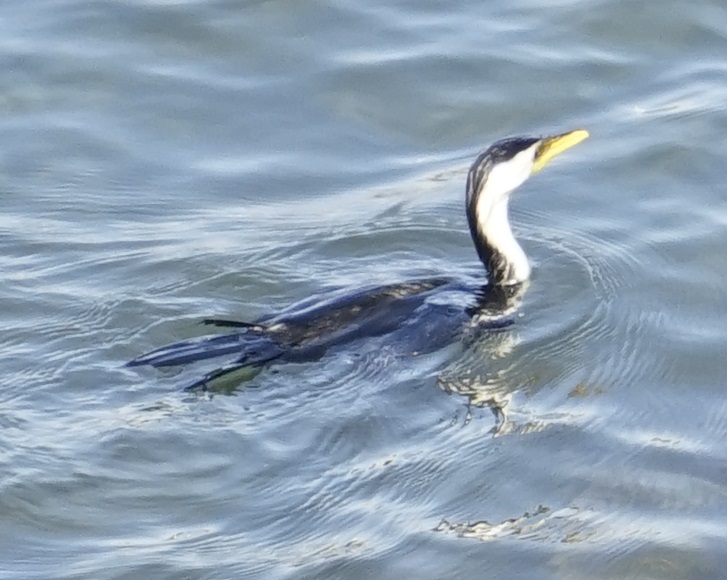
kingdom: Animalia
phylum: Chordata
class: Aves
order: Suliformes
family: Phalacrocoracidae
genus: Microcarbo
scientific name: Microcarbo melanoleucos
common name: Little pied cormorant
